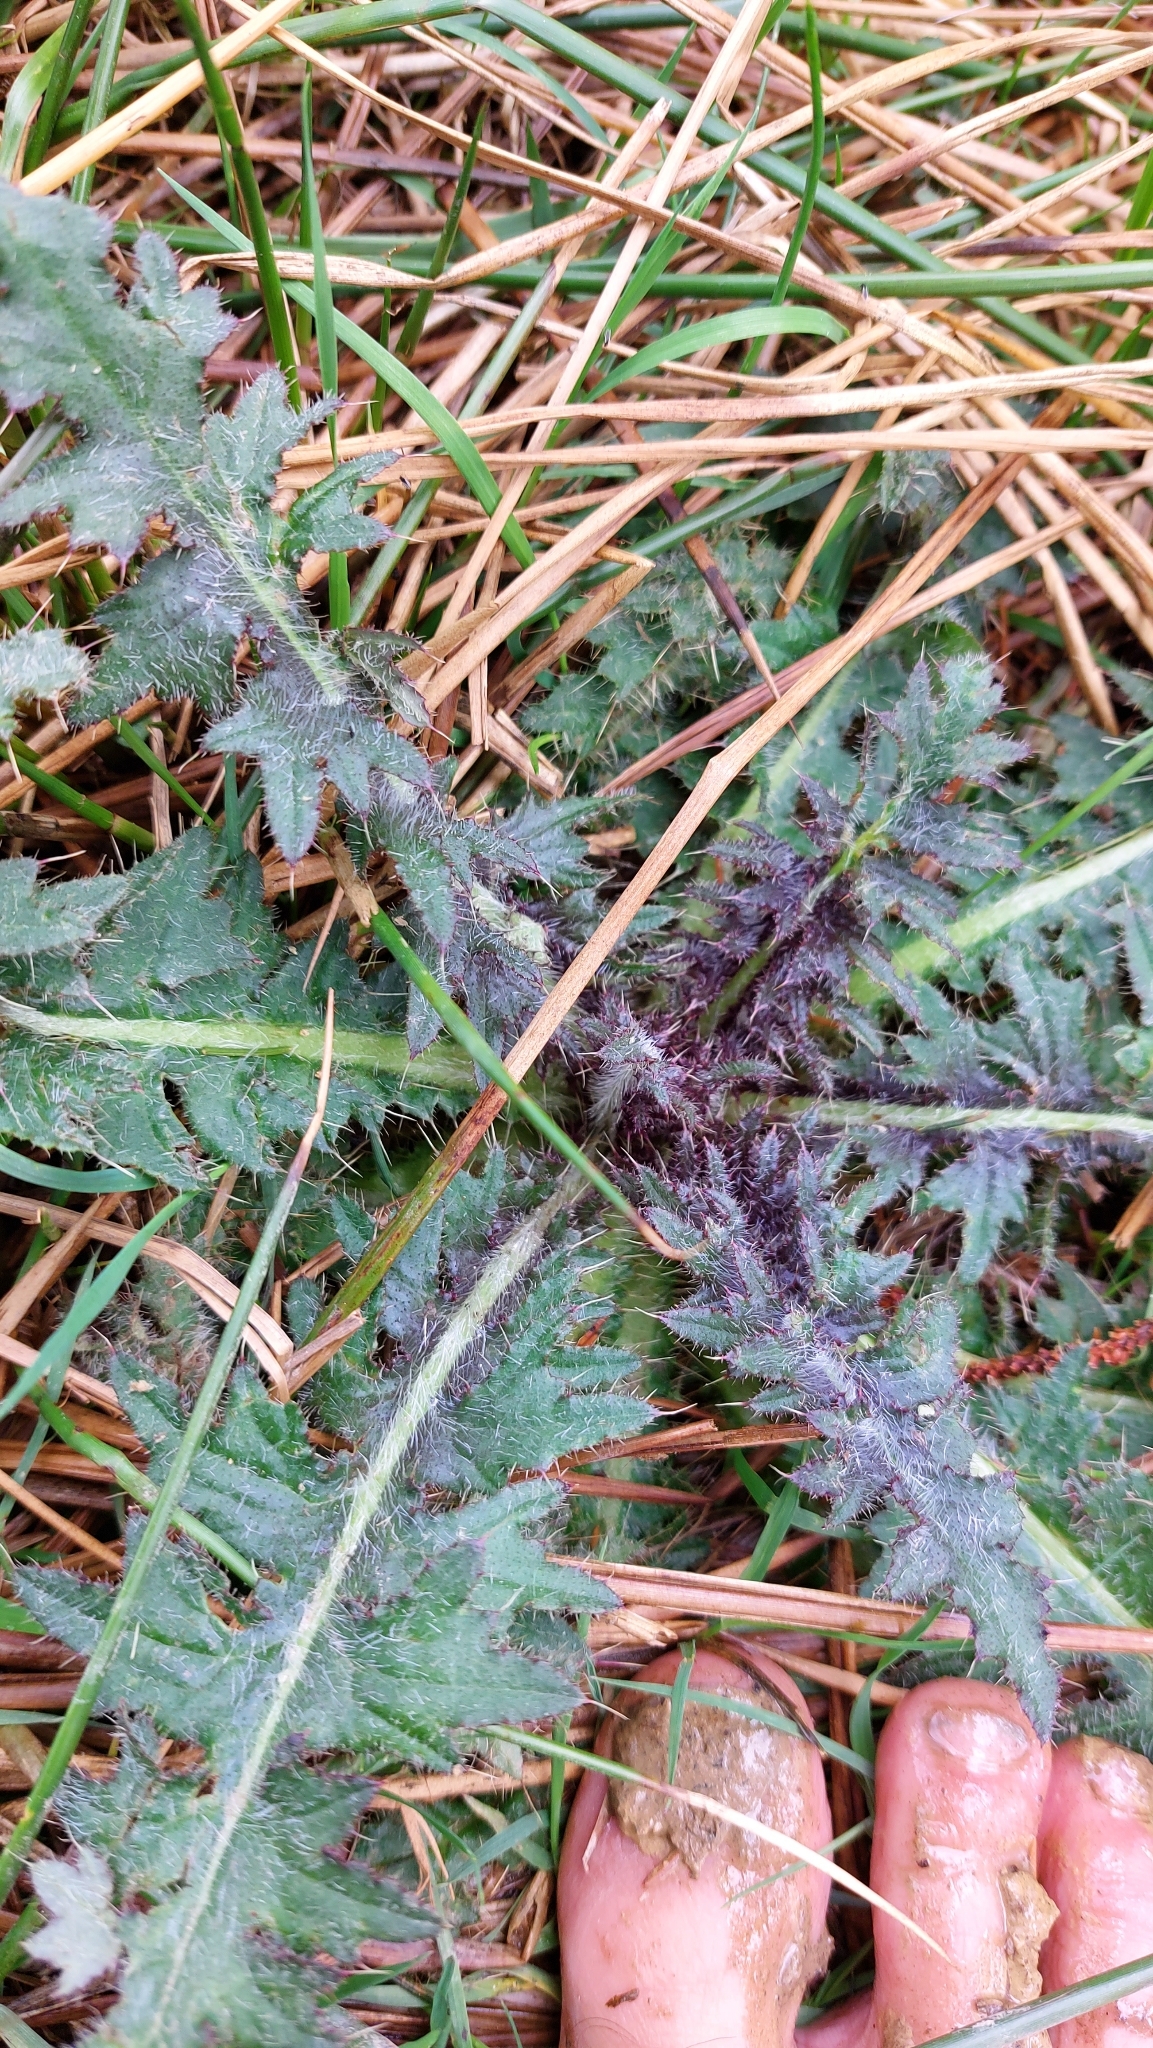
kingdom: Plantae
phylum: Tracheophyta
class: Magnoliopsida
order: Asterales
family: Asteraceae
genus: Cirsium
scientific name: Cirsium palustre
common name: Marsh thistle
